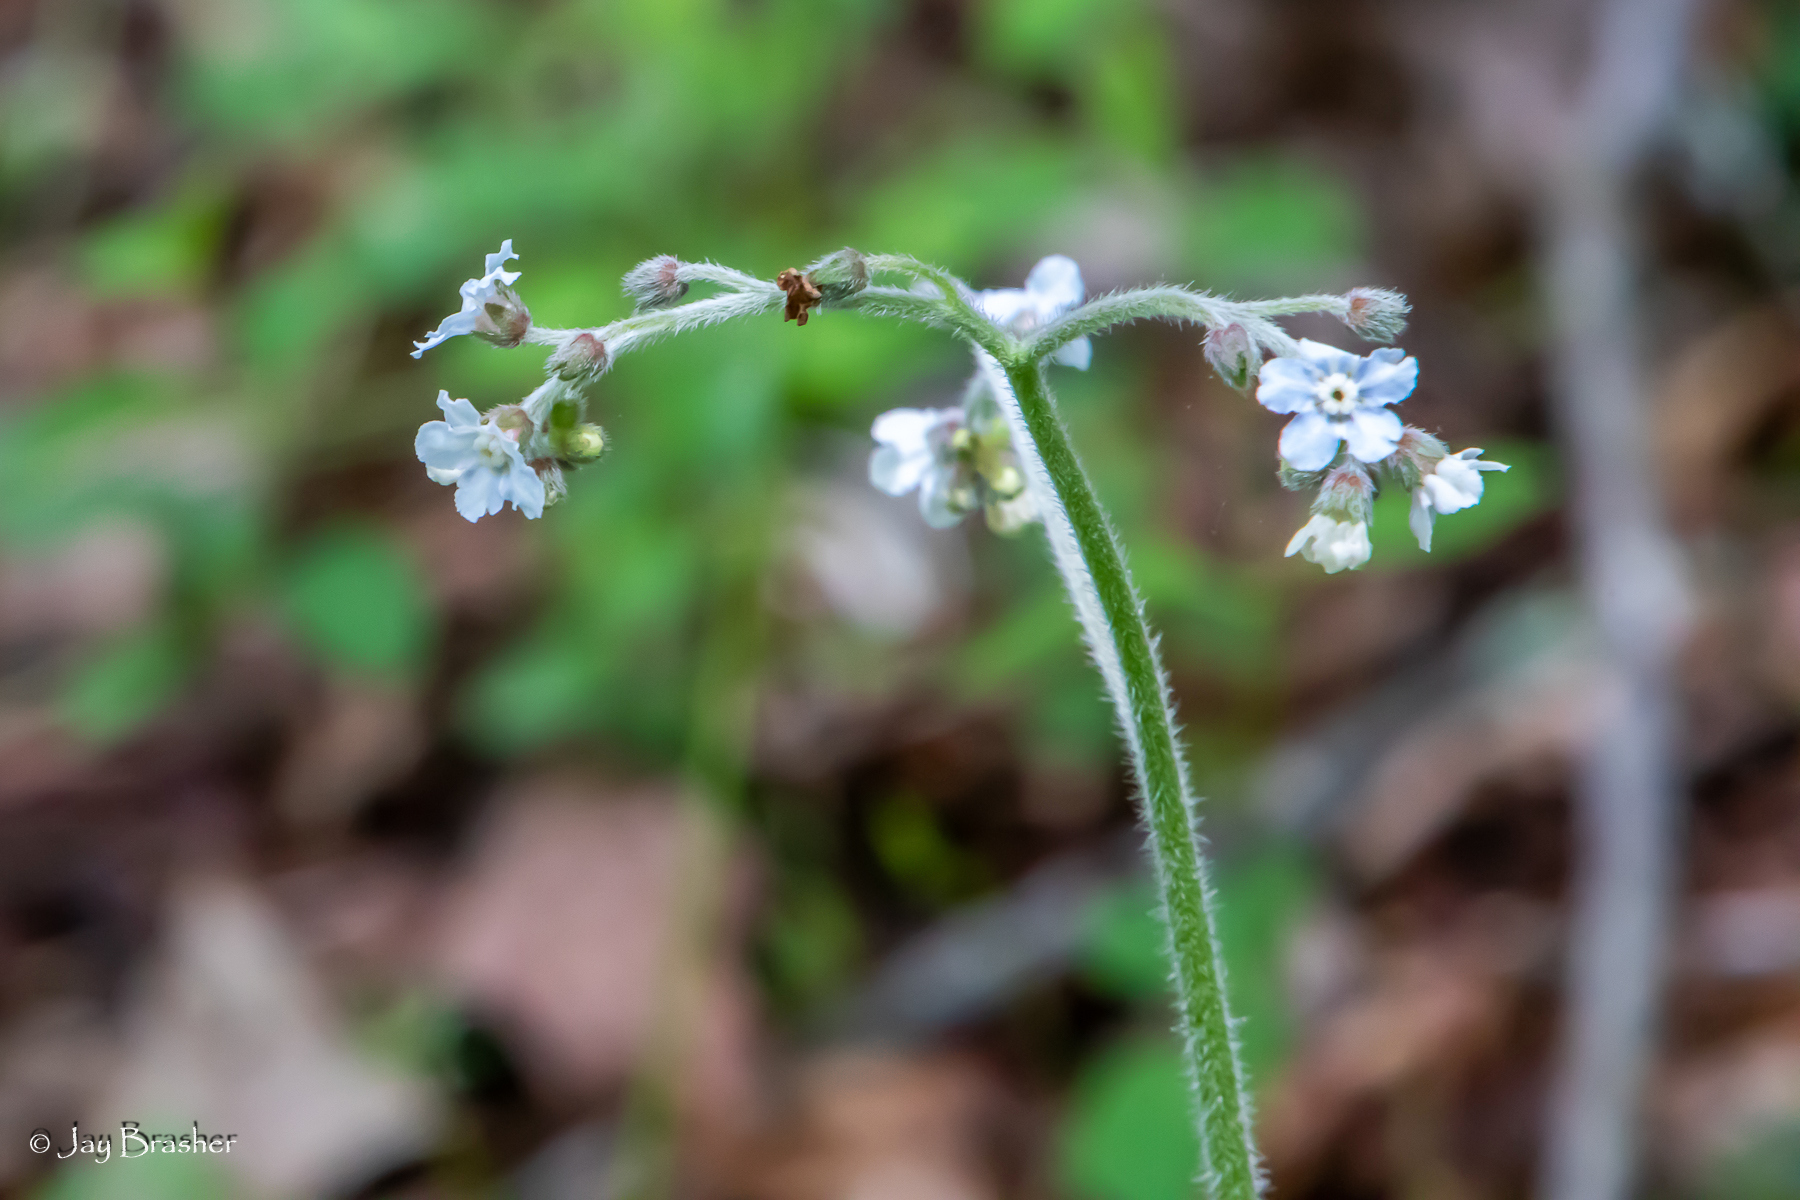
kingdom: Plantae
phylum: Tracheophyta
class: Magnoliopsida
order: Boraginales
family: Boraginaceae
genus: Andersonglossum
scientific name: Andersonglossum virginianum
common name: Wild comfrey
